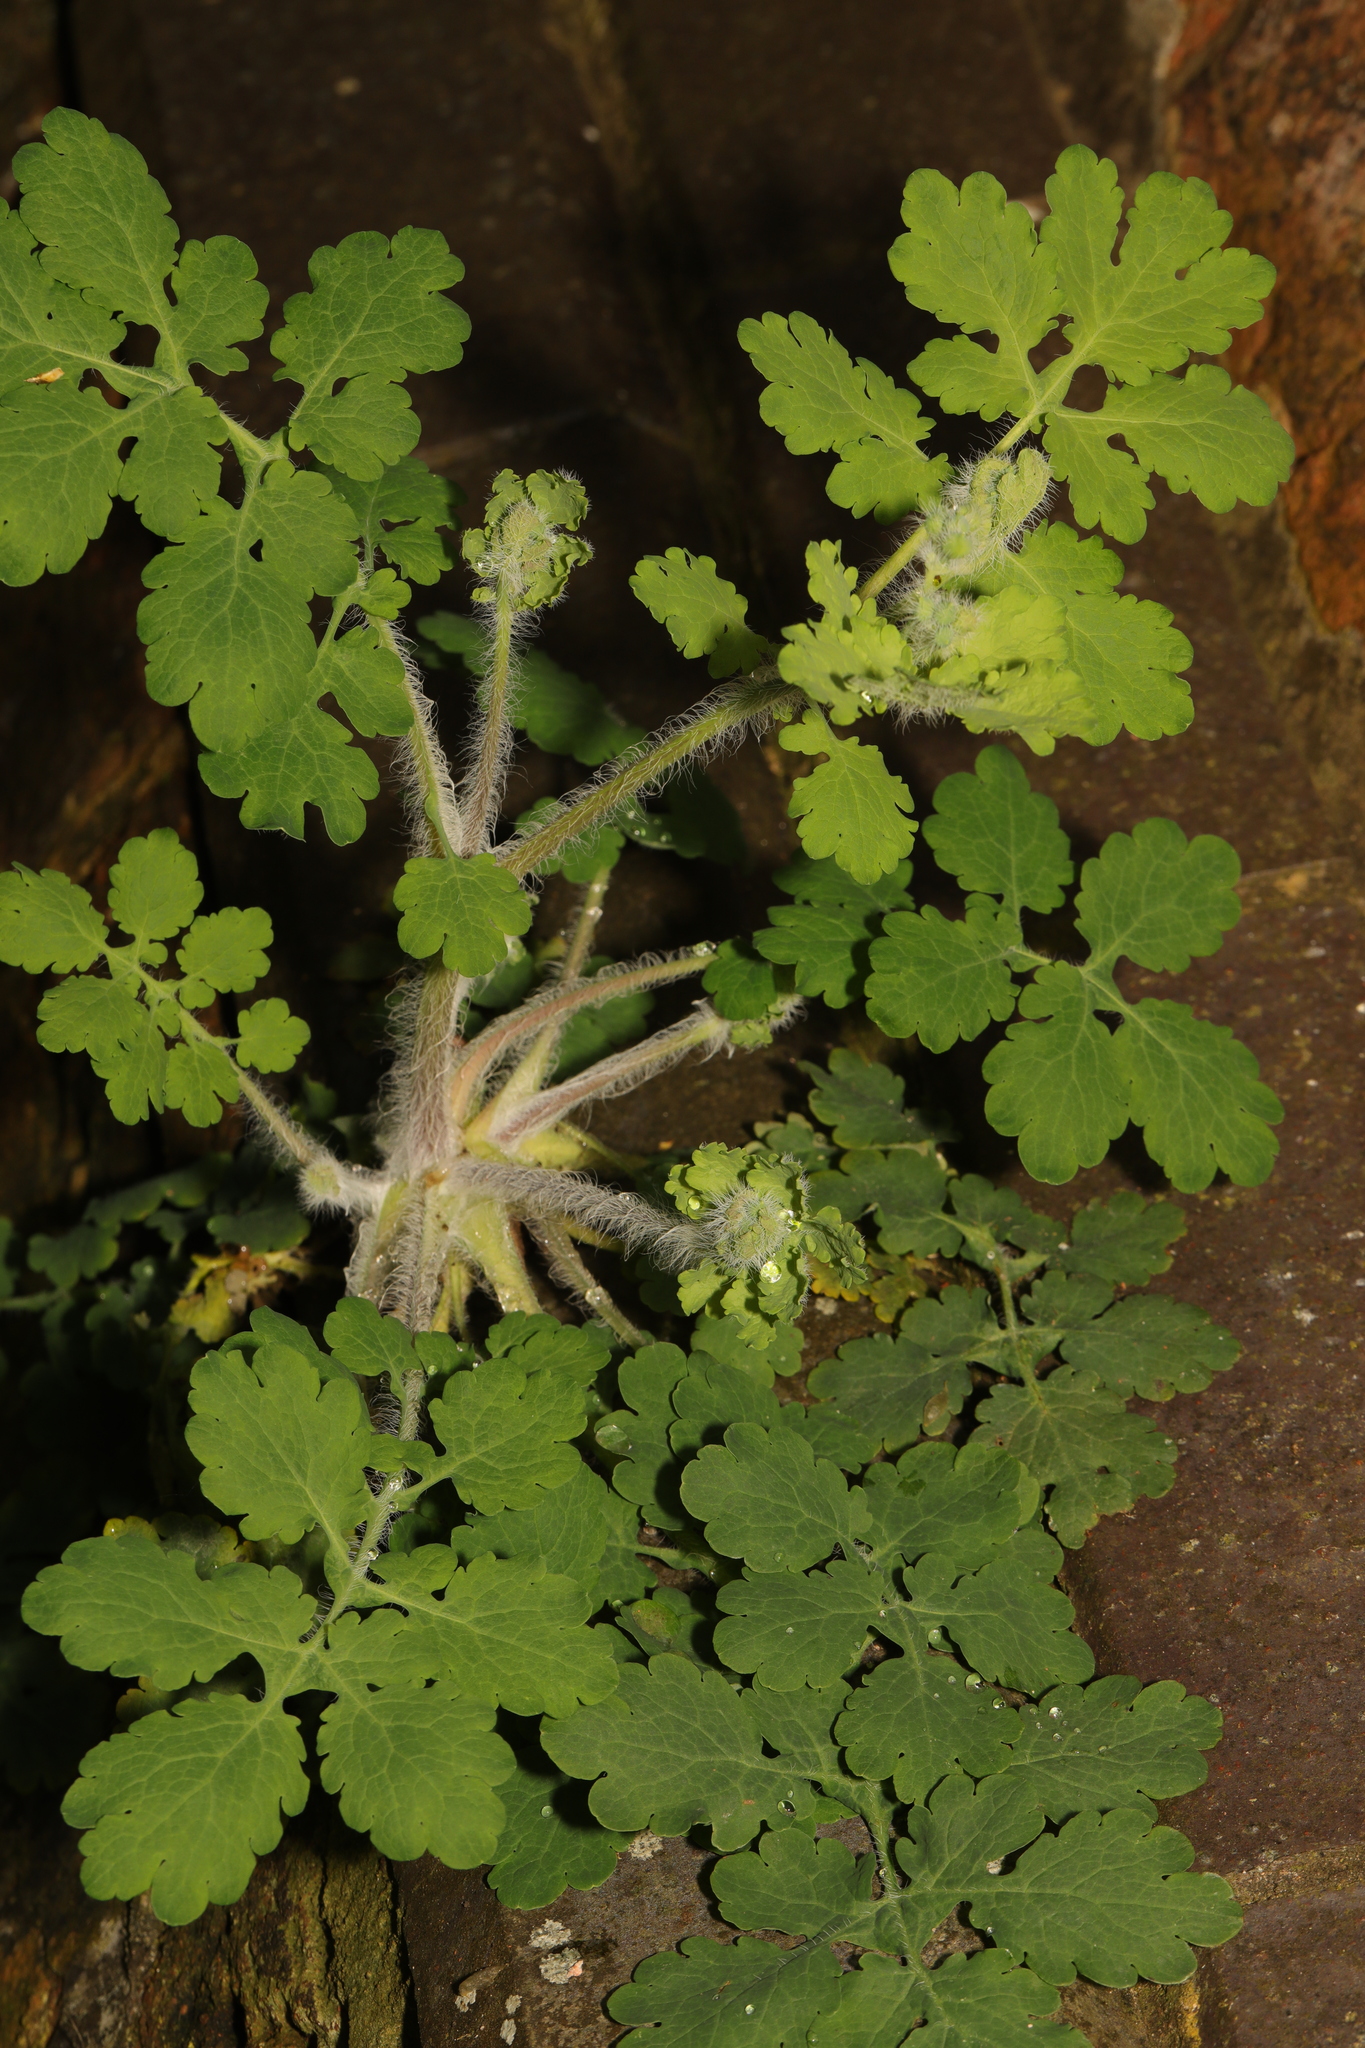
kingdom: Plantae
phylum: Tracheophyta
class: Magnoliopsida
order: Ranunculales
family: Papaveraceae
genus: Chelidonium
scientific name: Chelidonium majus
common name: Greater celandine
